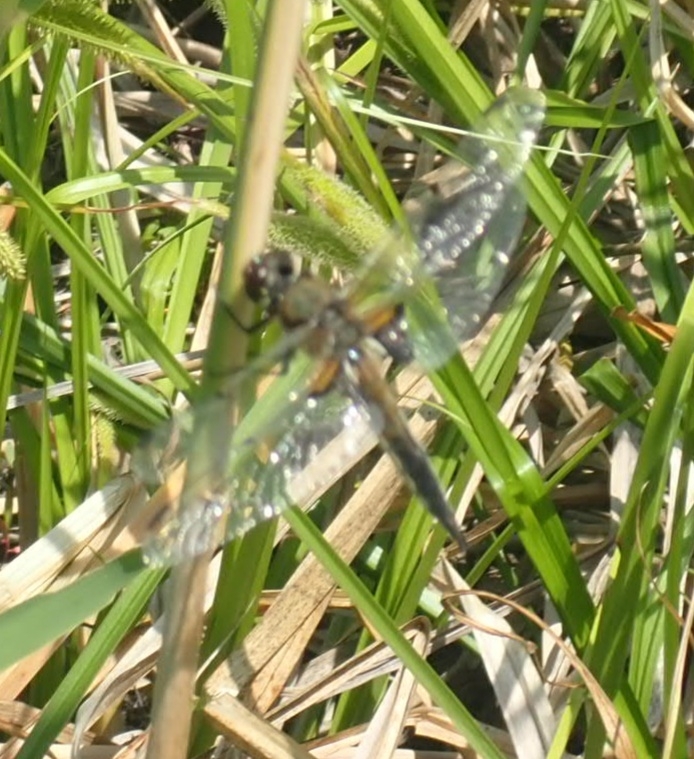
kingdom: Animalia
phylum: Arthropoda
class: Insecta
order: Odonata
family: Libellulidae
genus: Libellula
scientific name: Libellula quadrimaculata
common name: Four-spotted chaser
